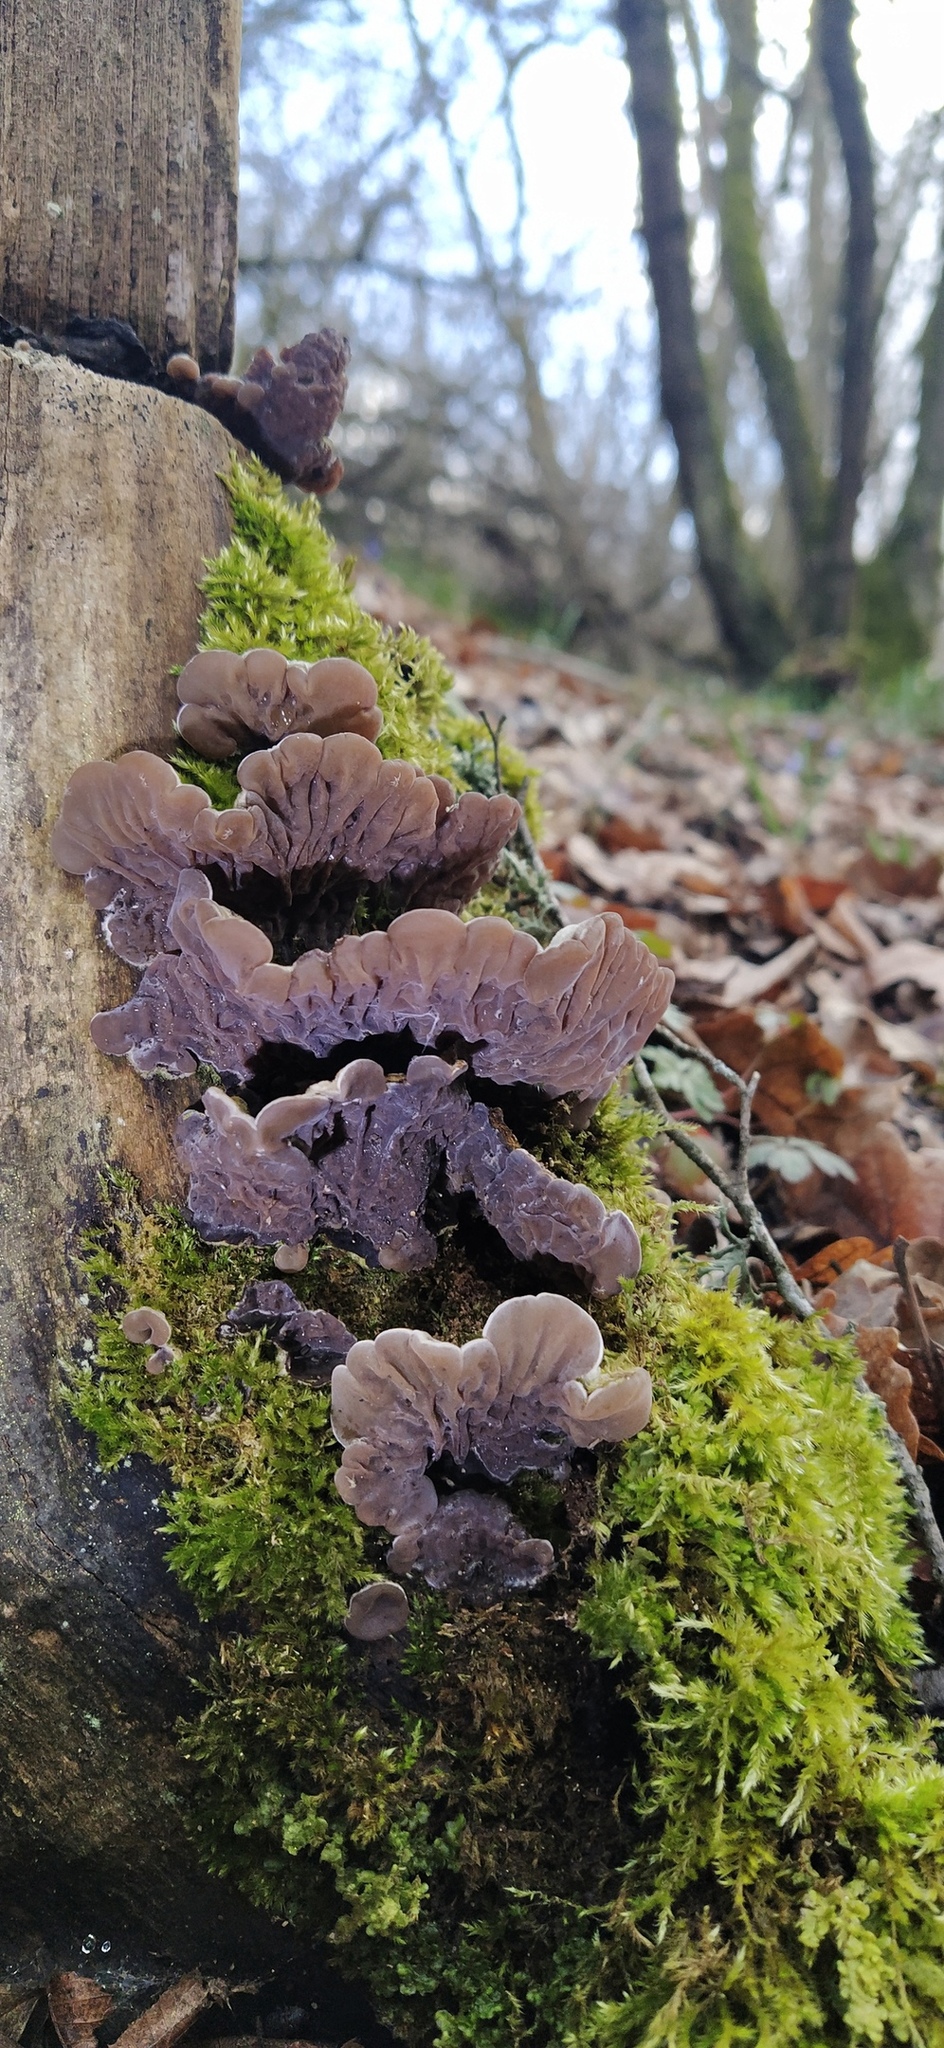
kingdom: Fungi
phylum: Basidiomycota
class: Agaricomycetes
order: Auriculariales
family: Auriculariaceae
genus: Auricularia
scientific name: Auricularia mesenterica
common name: Tripe fungus
